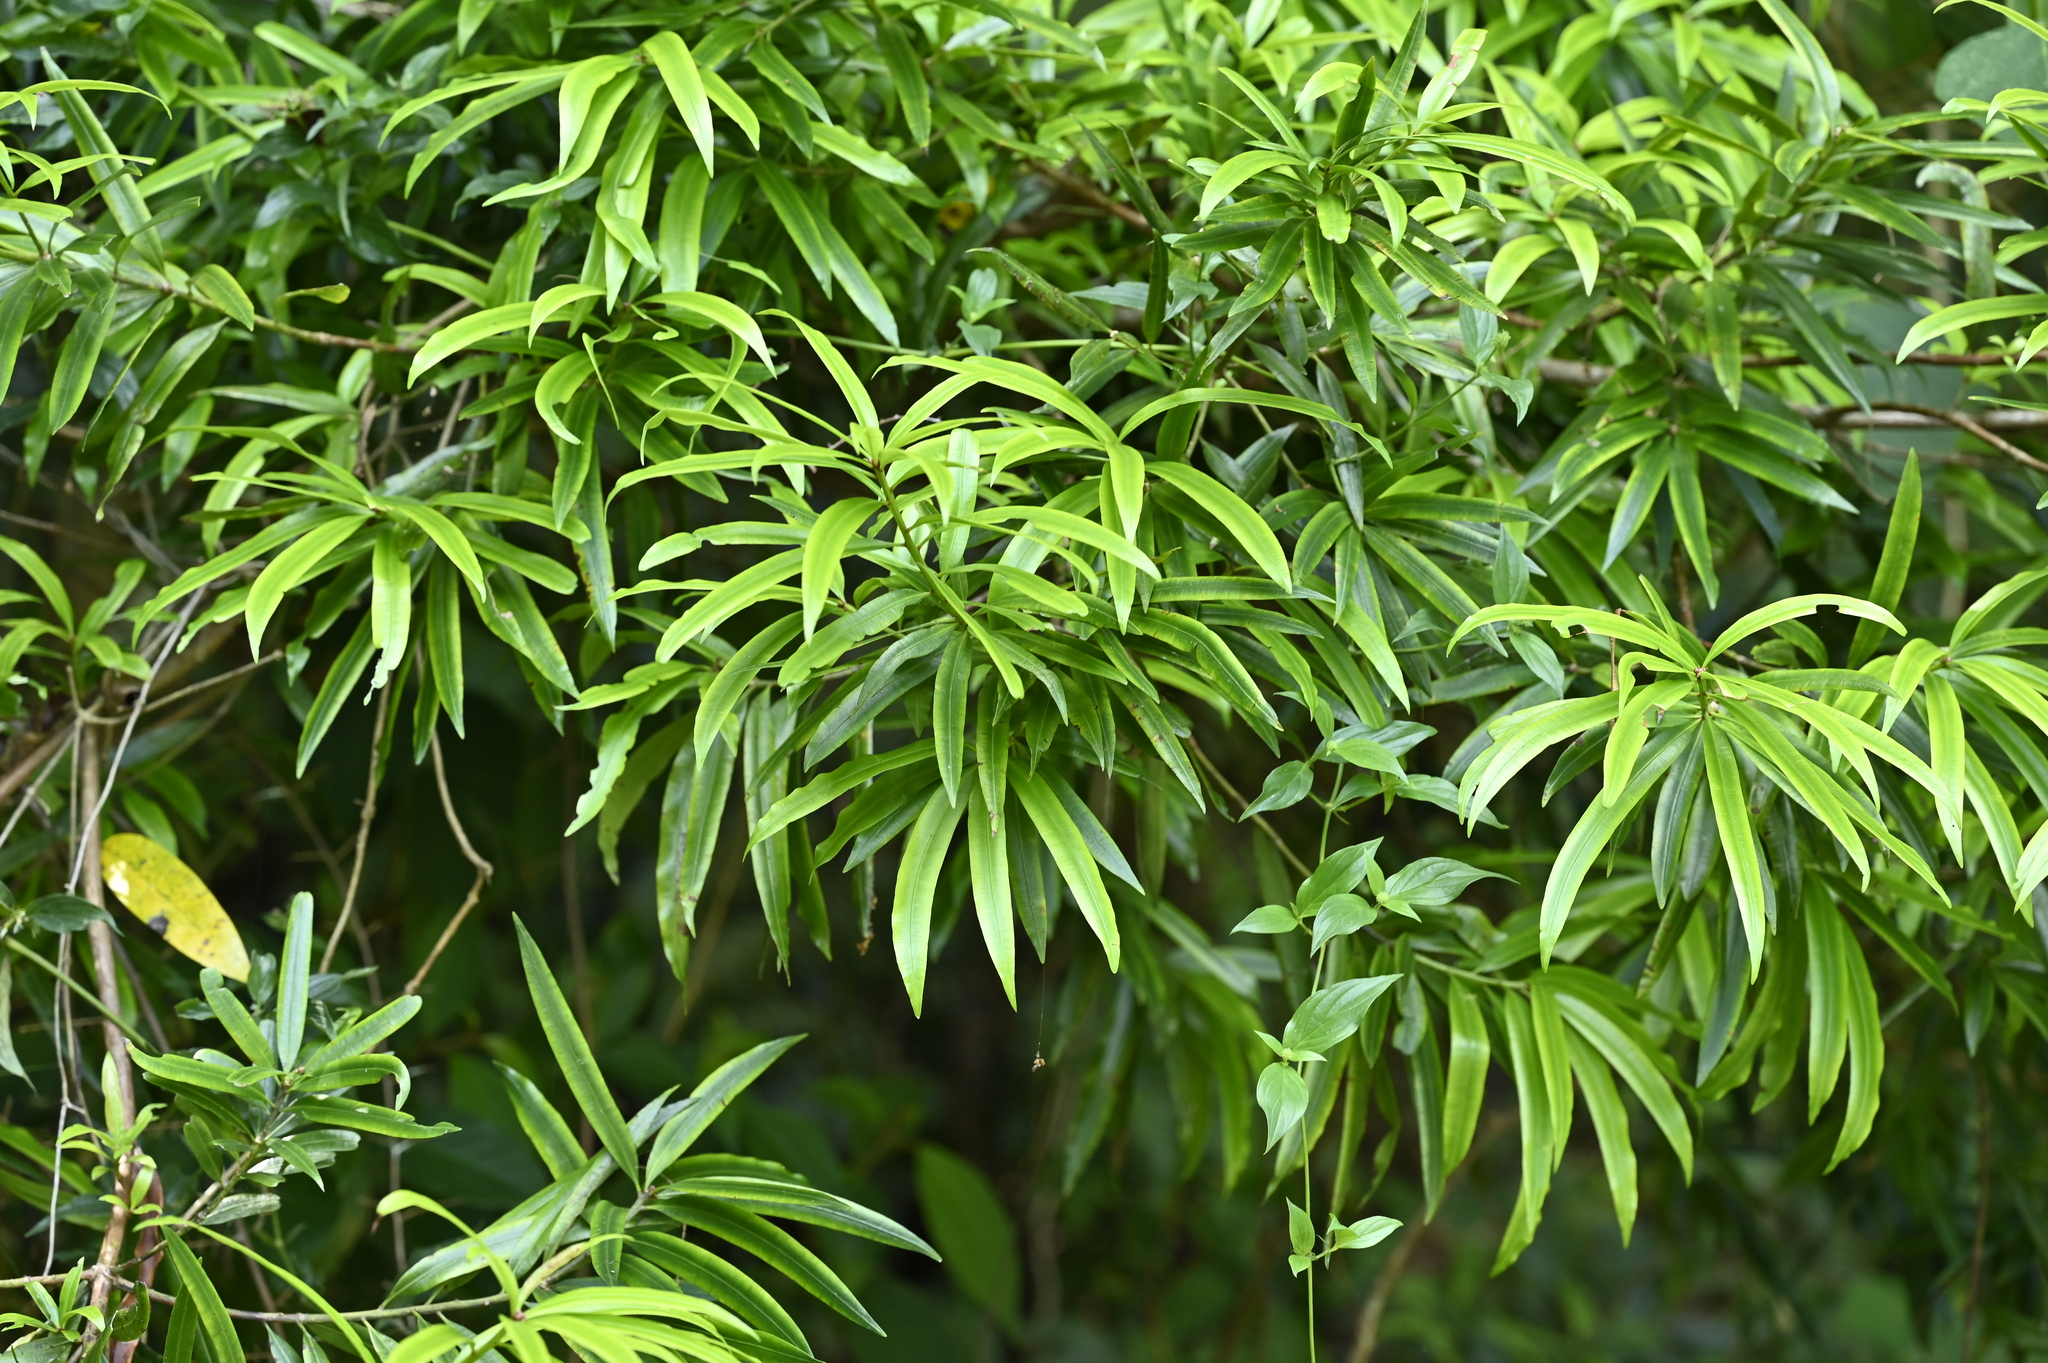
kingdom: Plantae
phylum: Tracheophyta
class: Pinopsida
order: Pinales
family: Podocarpaceae
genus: Podocarpus
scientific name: Podocarpus nakaii
